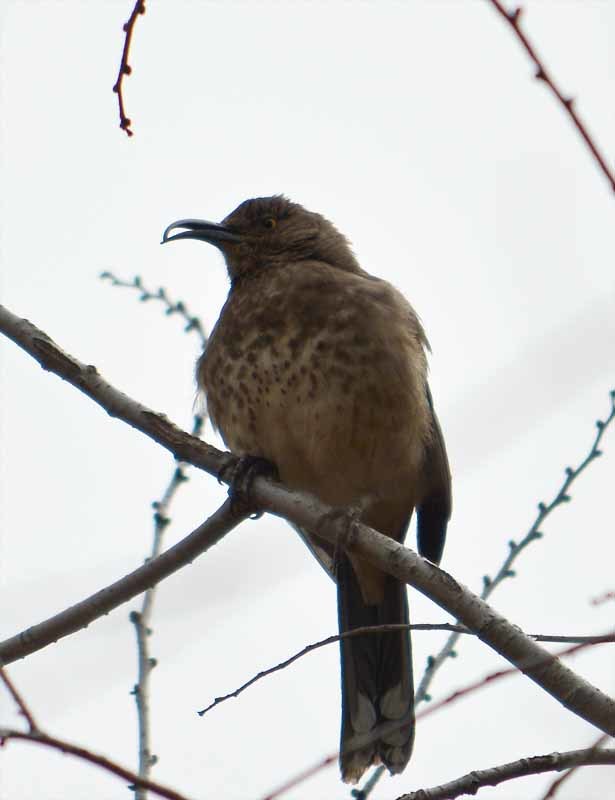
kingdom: Animalia
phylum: Chordata
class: Aves
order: Passeriformes
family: Mimidae
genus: Toxostoma
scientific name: Toxostoma curvirostre
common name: Curve-billed thrasher
